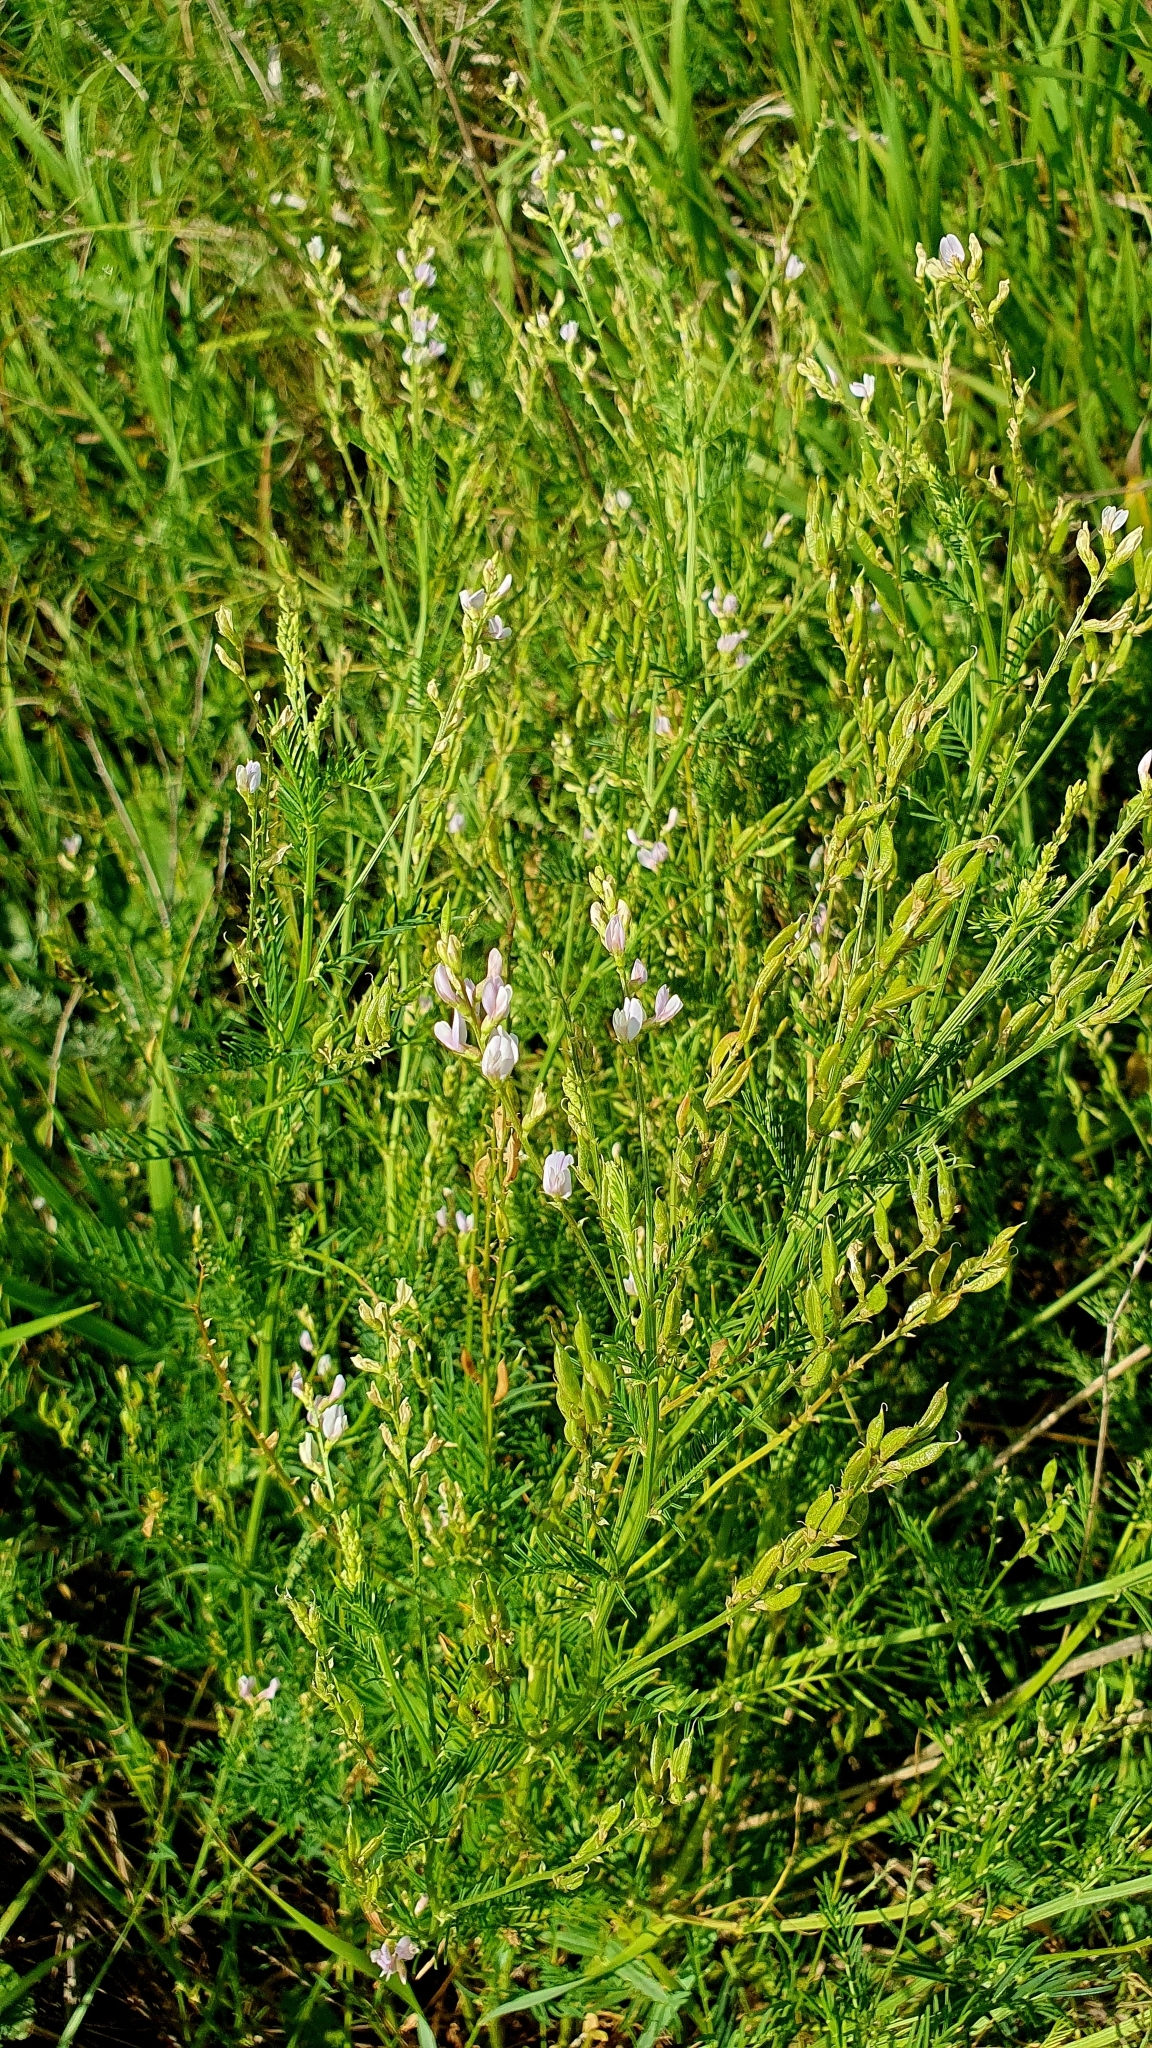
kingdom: Plantae
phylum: Tracheophyta
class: Magnoliopsida
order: Fabales
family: Fabaceae
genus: Astragalus
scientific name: Astragalus sulcatus
